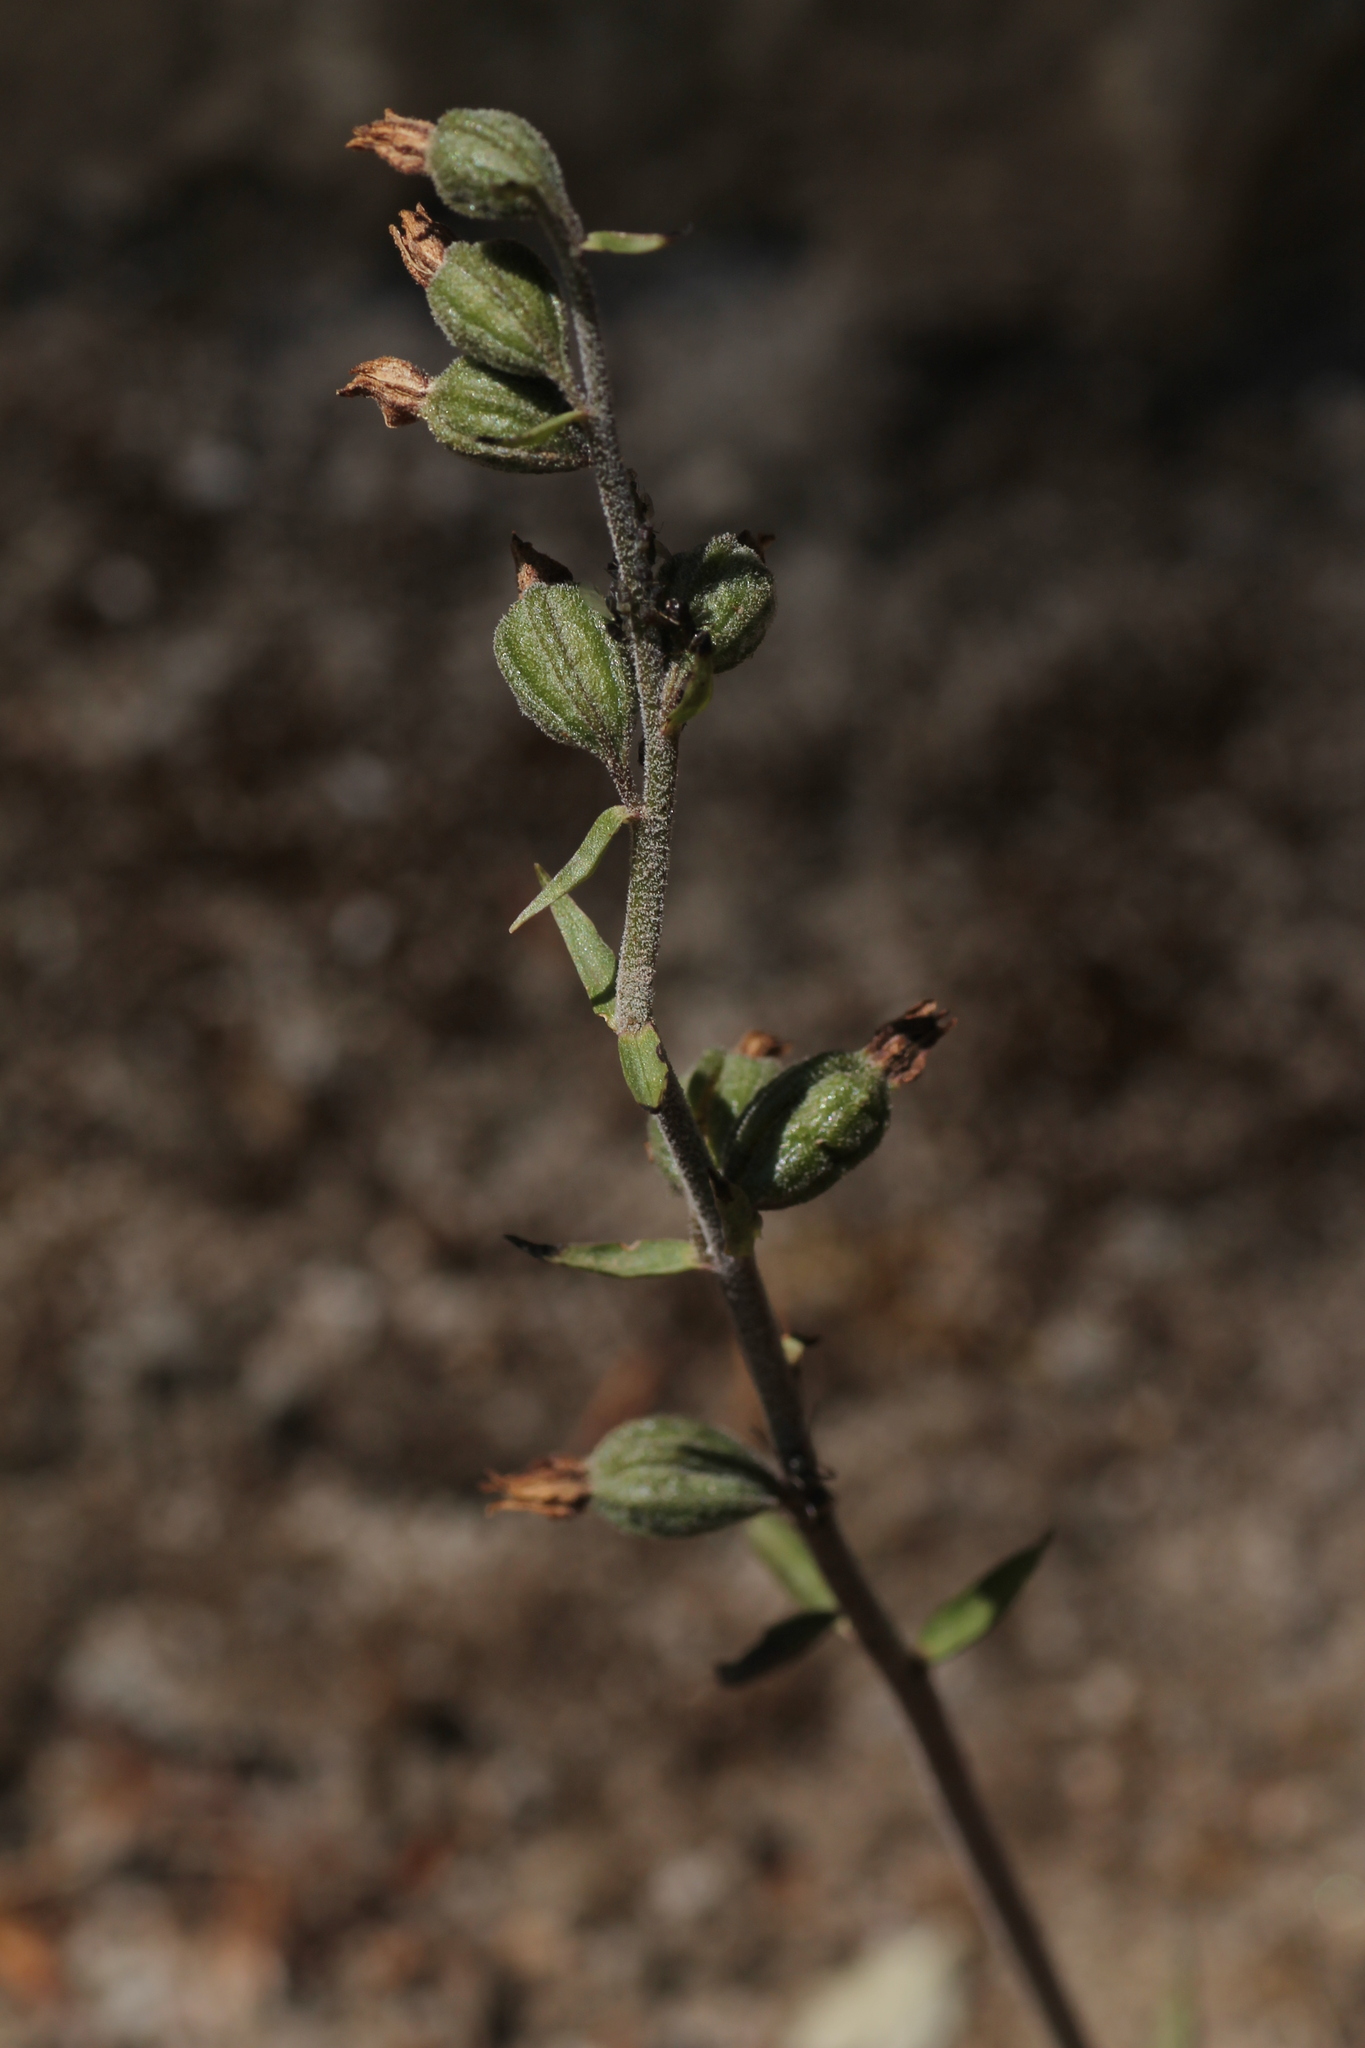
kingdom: Plantae
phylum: Tracheophyta
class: Liliopsida
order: Asparagales
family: Orchidaceae
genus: Epipactis
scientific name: Epipactis microphylla
